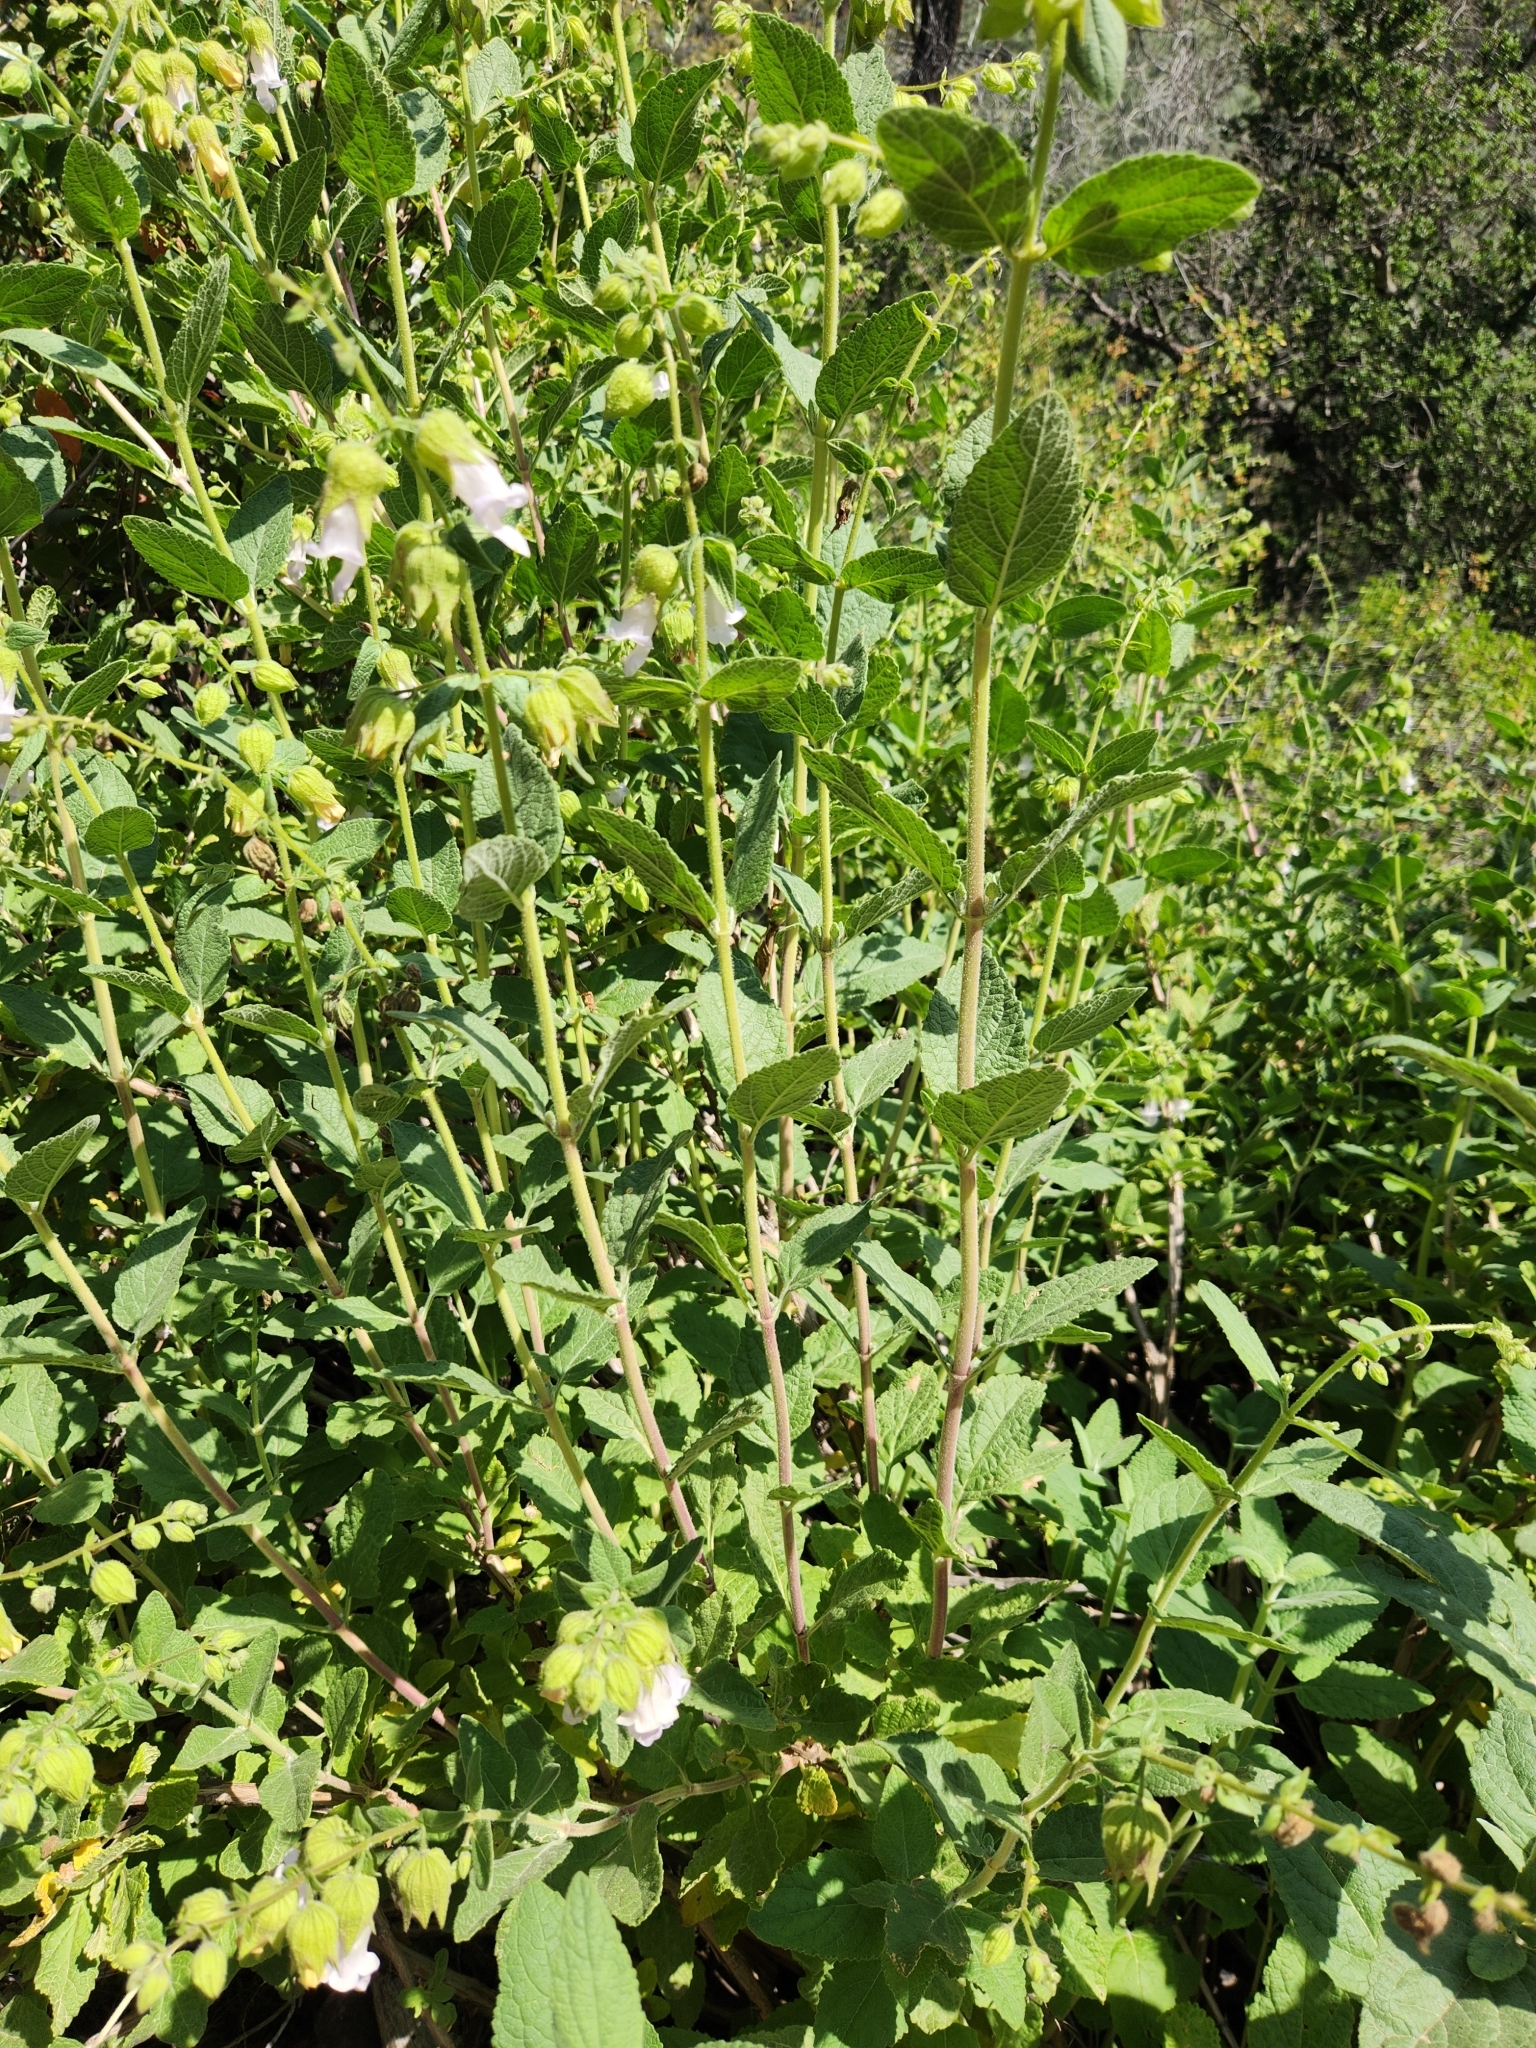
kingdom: Plantae
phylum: Tracheophyta
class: Magnoliopsida
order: Lamiales
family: Lamiaceae
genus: Lepechinia
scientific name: Lepechinia calycina
